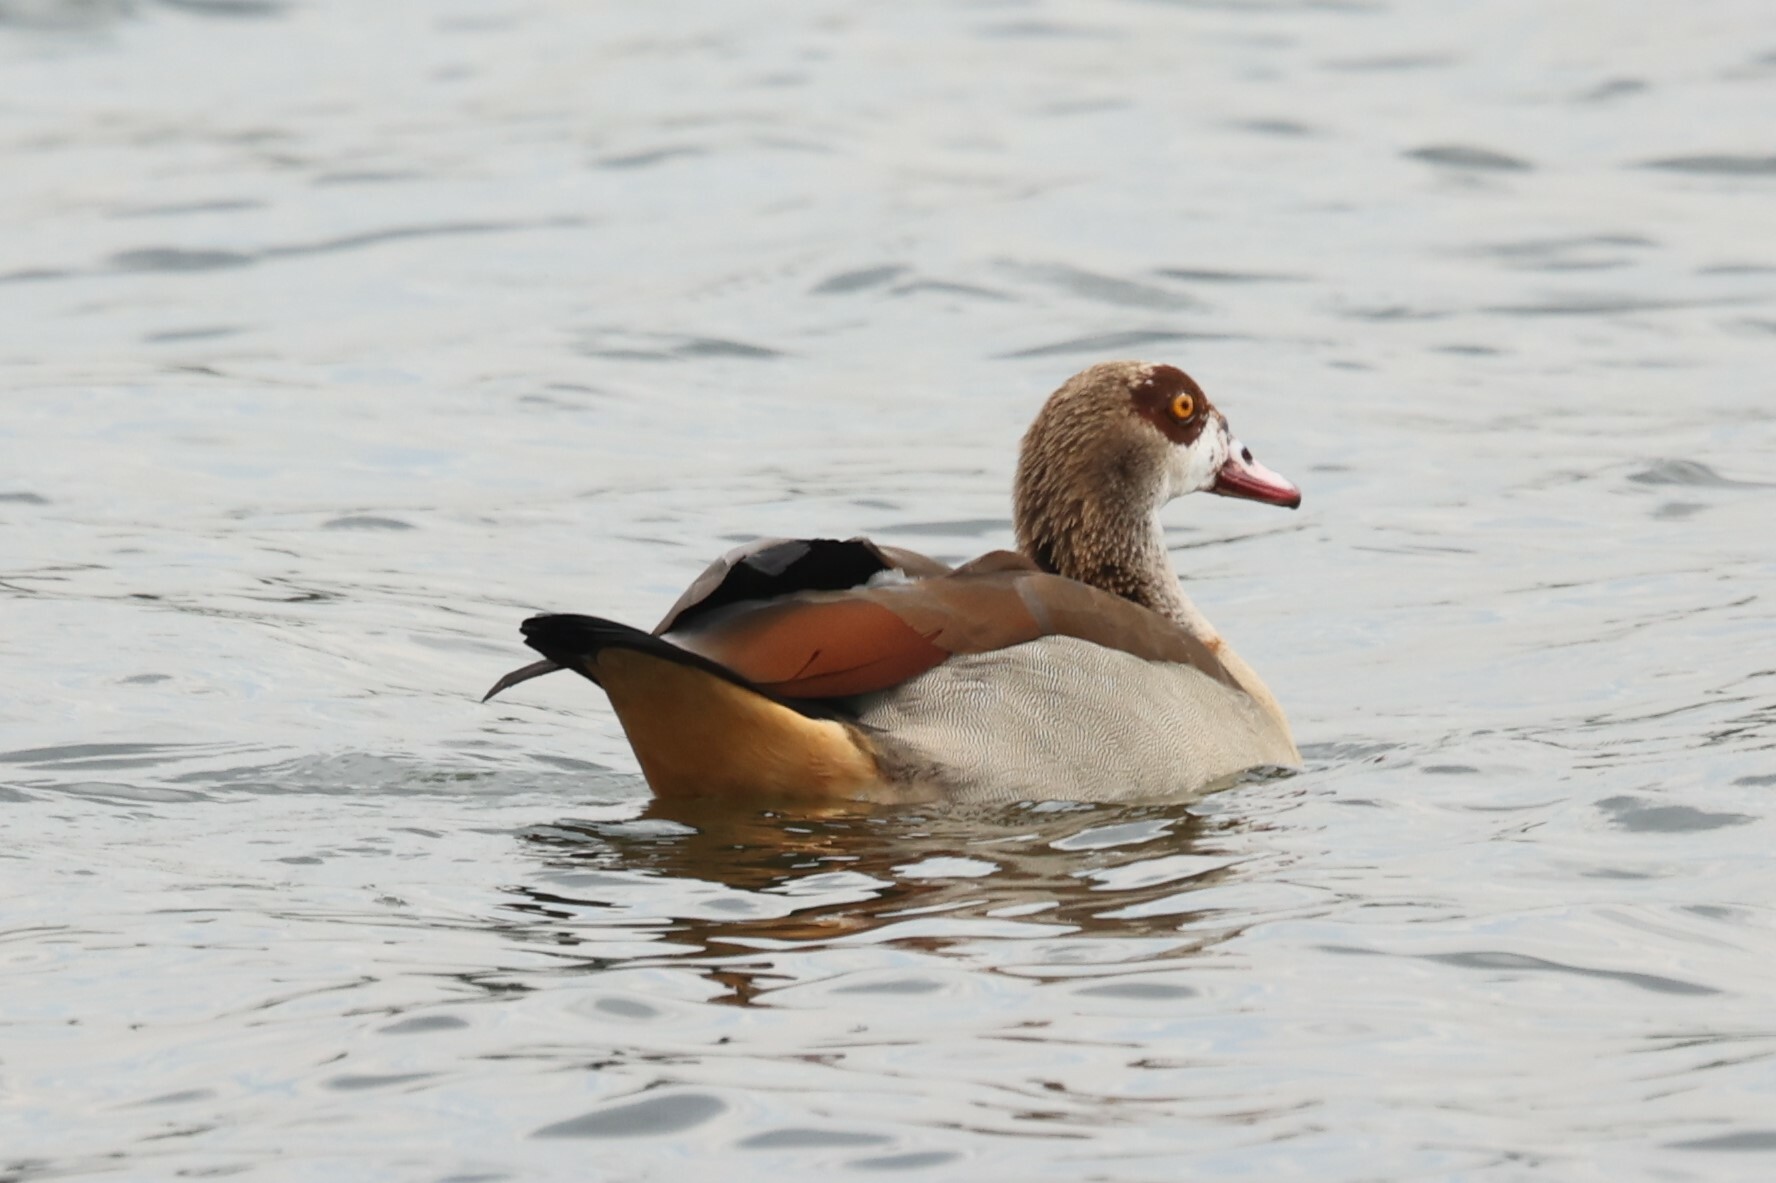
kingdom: Animalia
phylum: Chordata
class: Aves
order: Anseriformes
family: Anatidae
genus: Alopochen
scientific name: Alopochen aegyptiaca
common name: Egyptian goose
